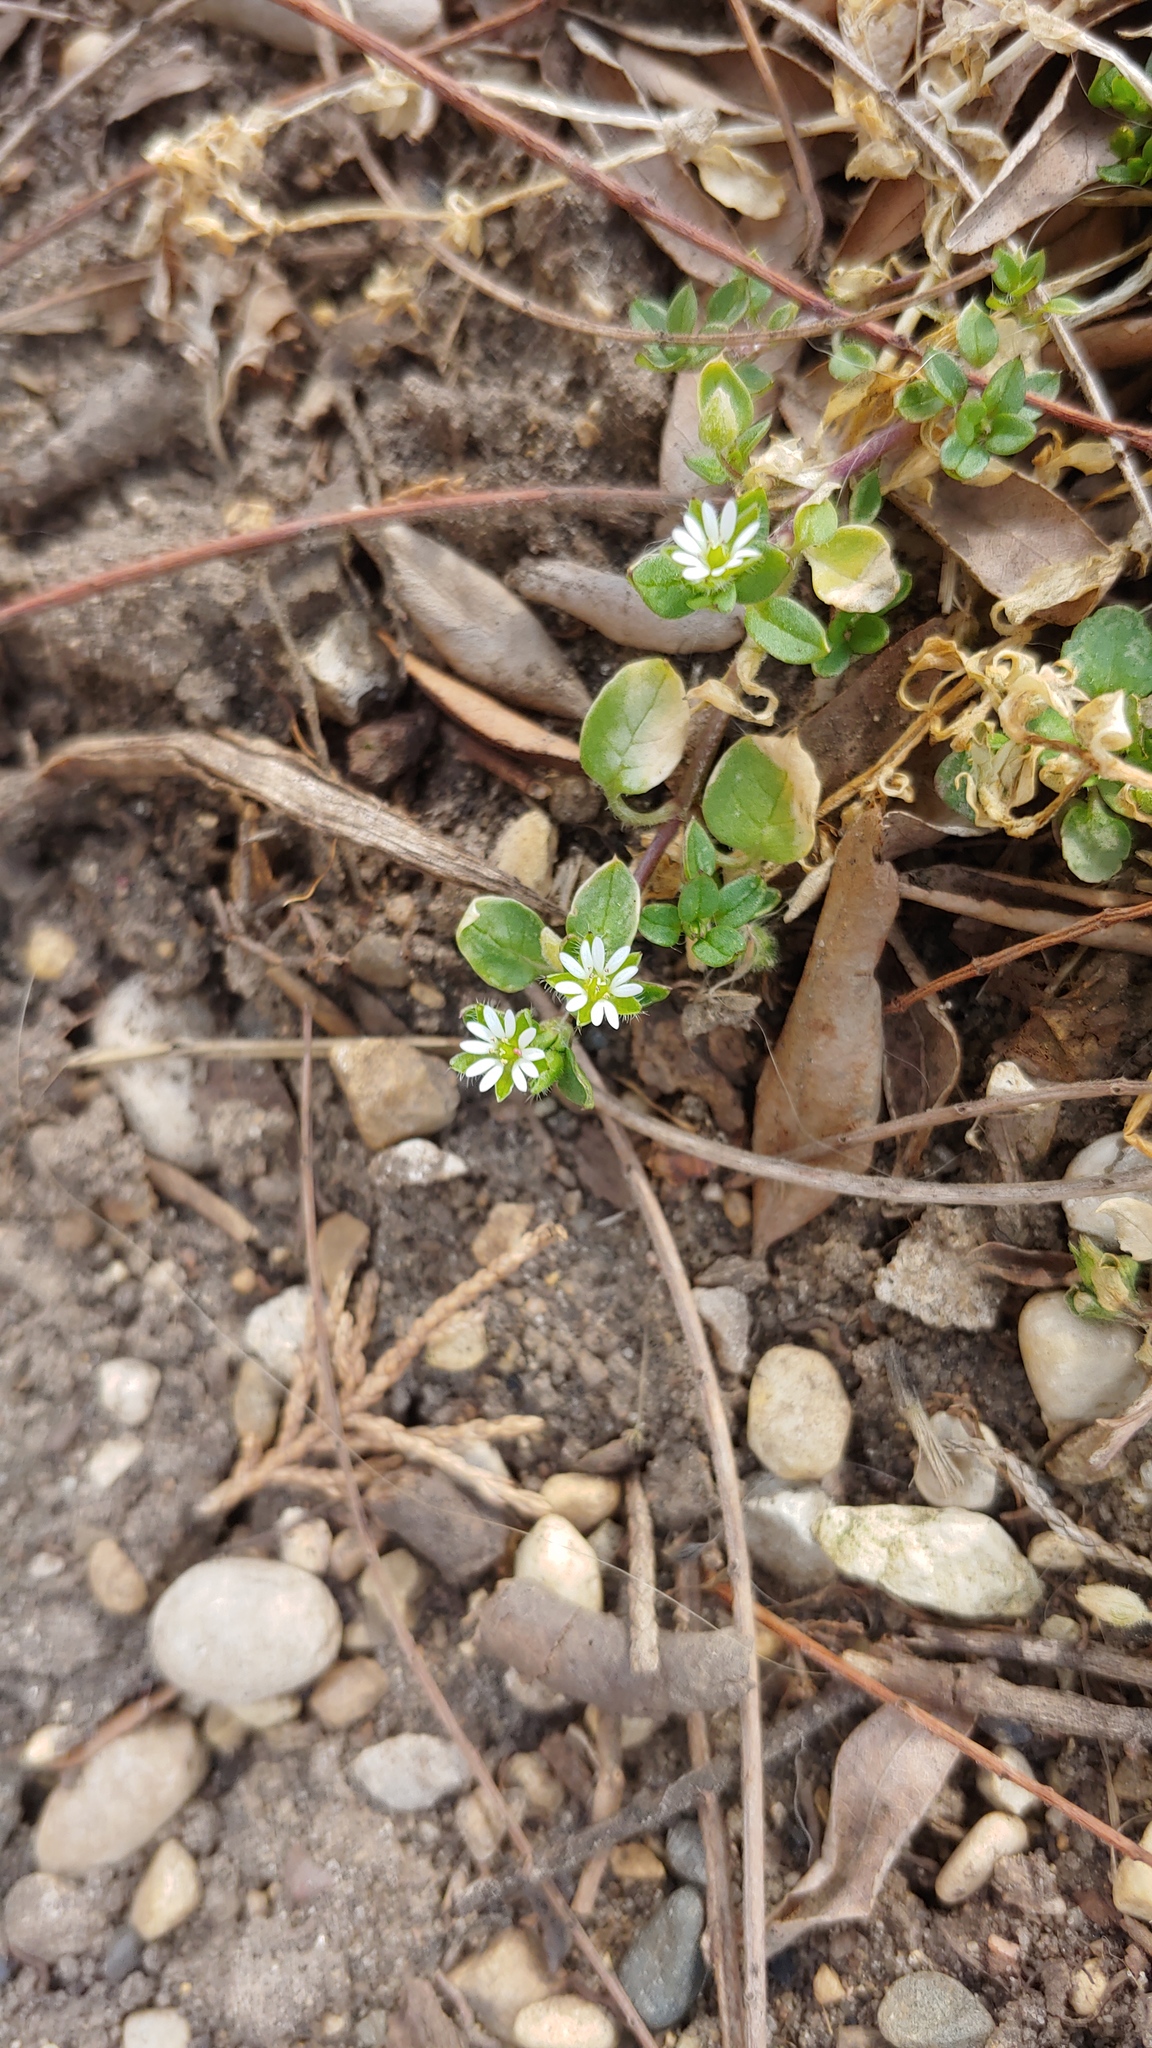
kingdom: Plantae
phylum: Tracheophyta
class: Magnoliopsida
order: Caryophyllales
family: Caryophyllaceae
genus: Stellaria
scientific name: Stellaria media
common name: Common chickweed
